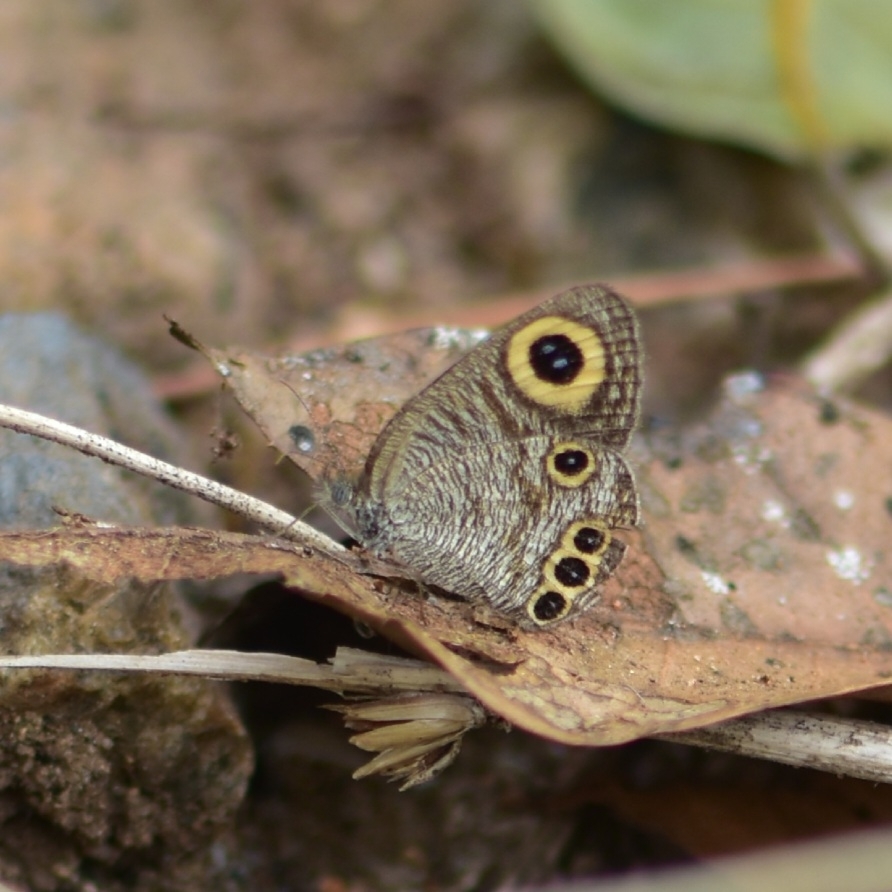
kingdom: Animalia
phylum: Arthropoda
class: Insecta
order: Lepidoptera
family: Nymphalidae
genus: Ypthima
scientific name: Ypthima huebneri
